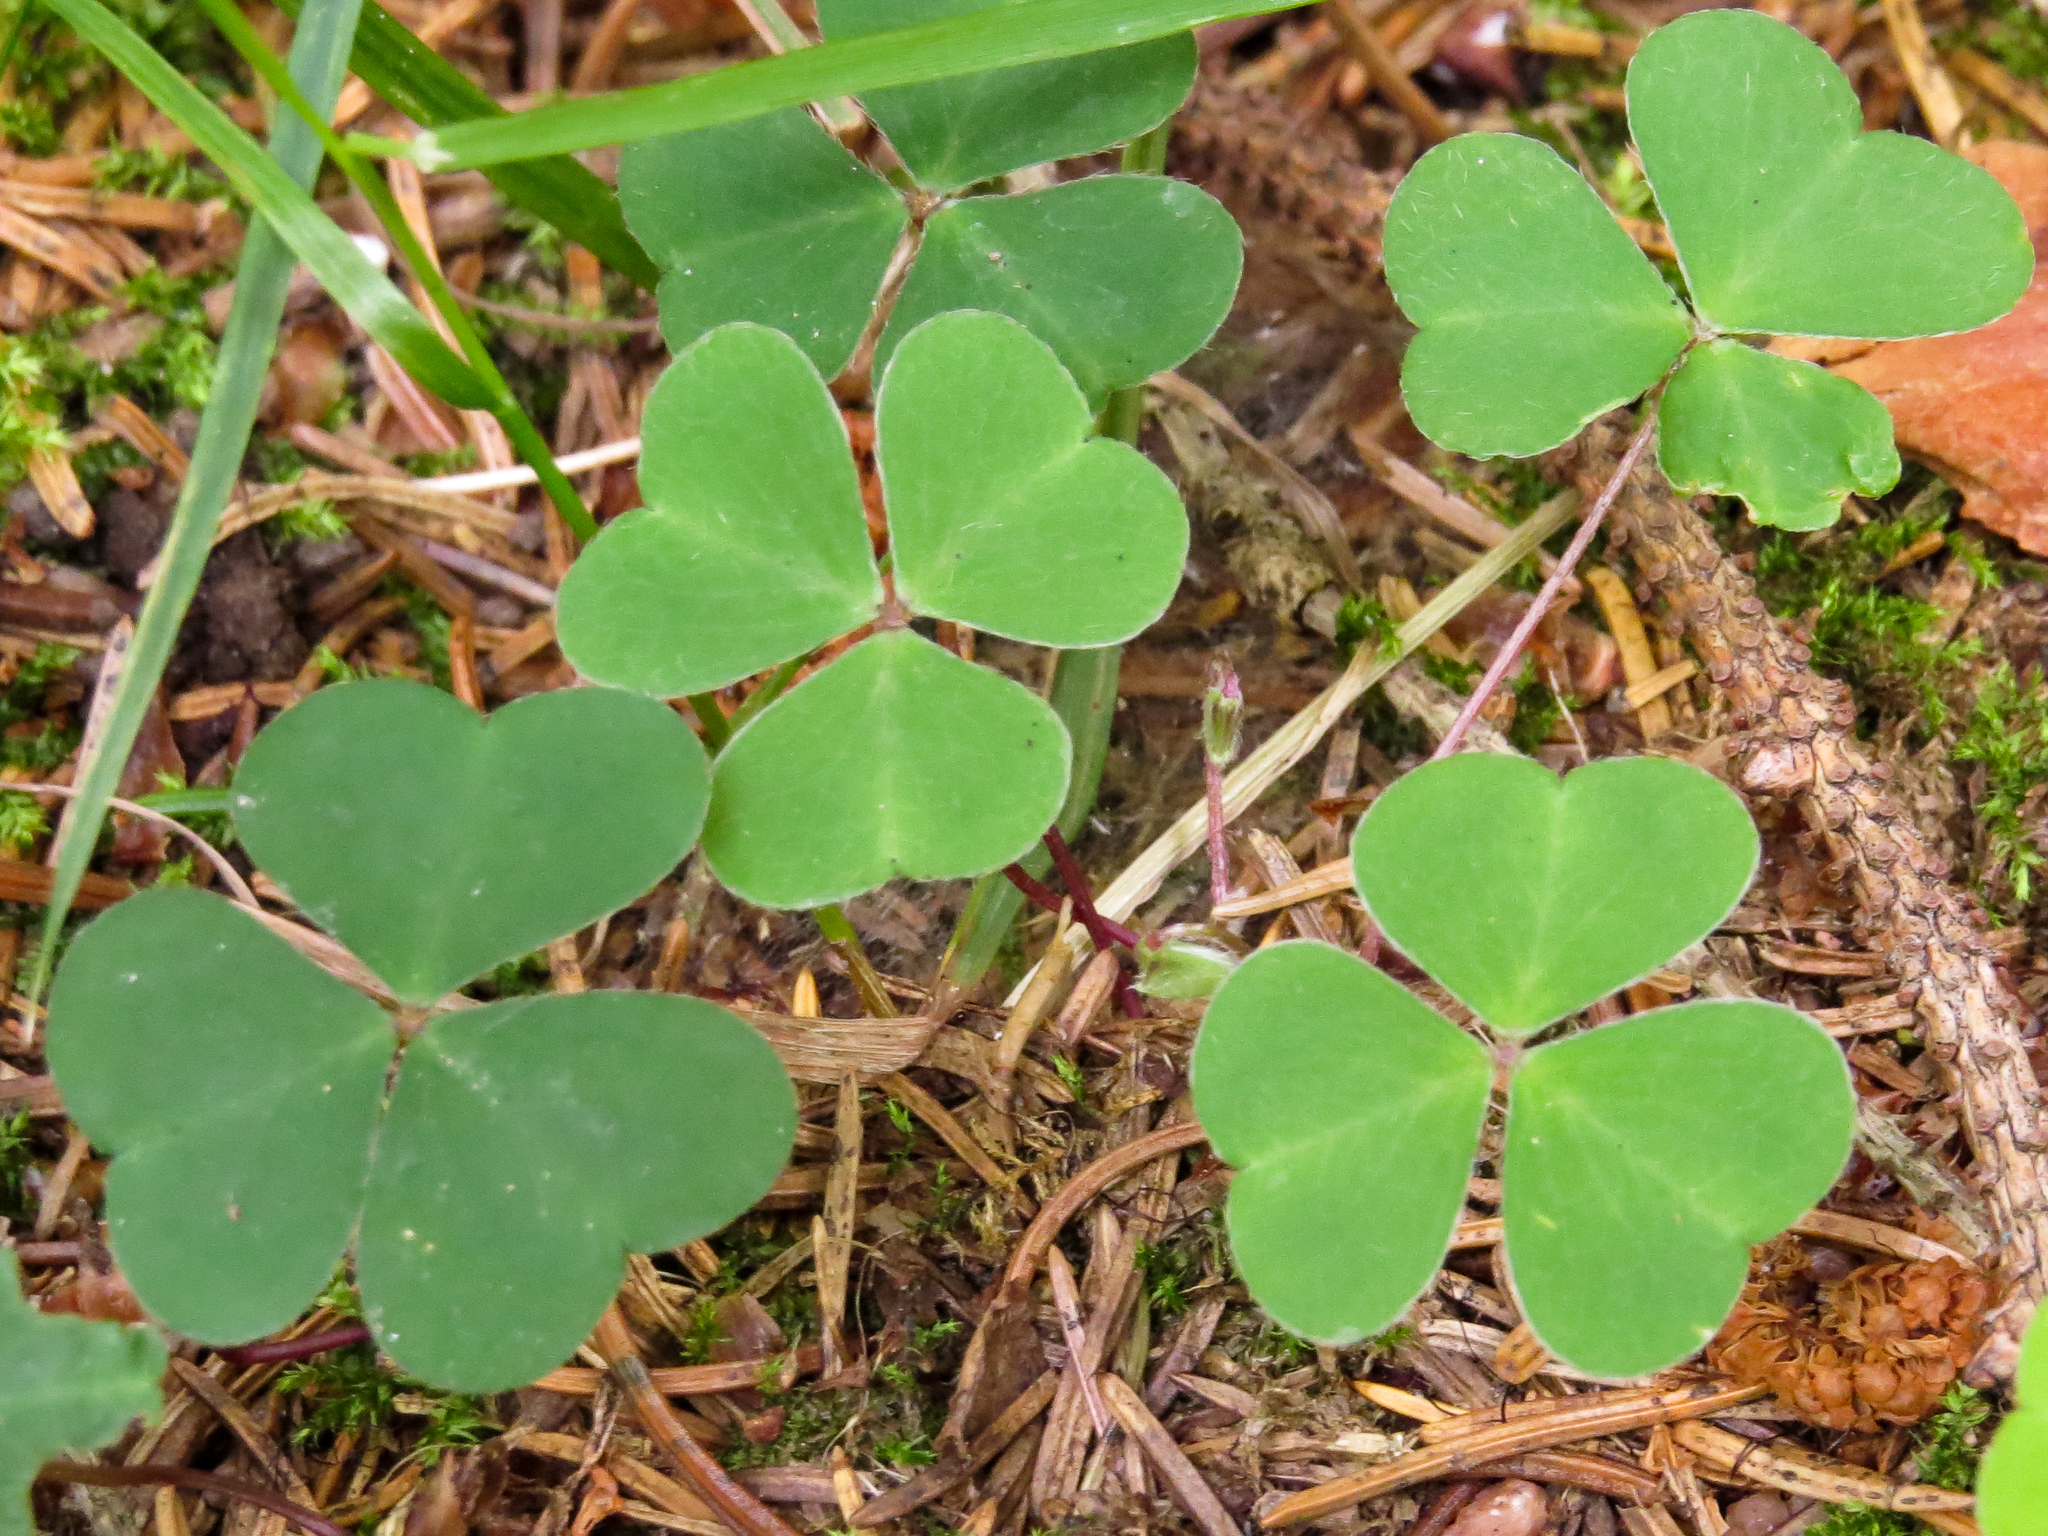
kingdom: Plantae
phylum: Tracheophyta
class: Magnoliopsida
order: Oxalidales
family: Oxalidaceae
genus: Oxalis
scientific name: Oxalis acetosella
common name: Wood-sorrel
